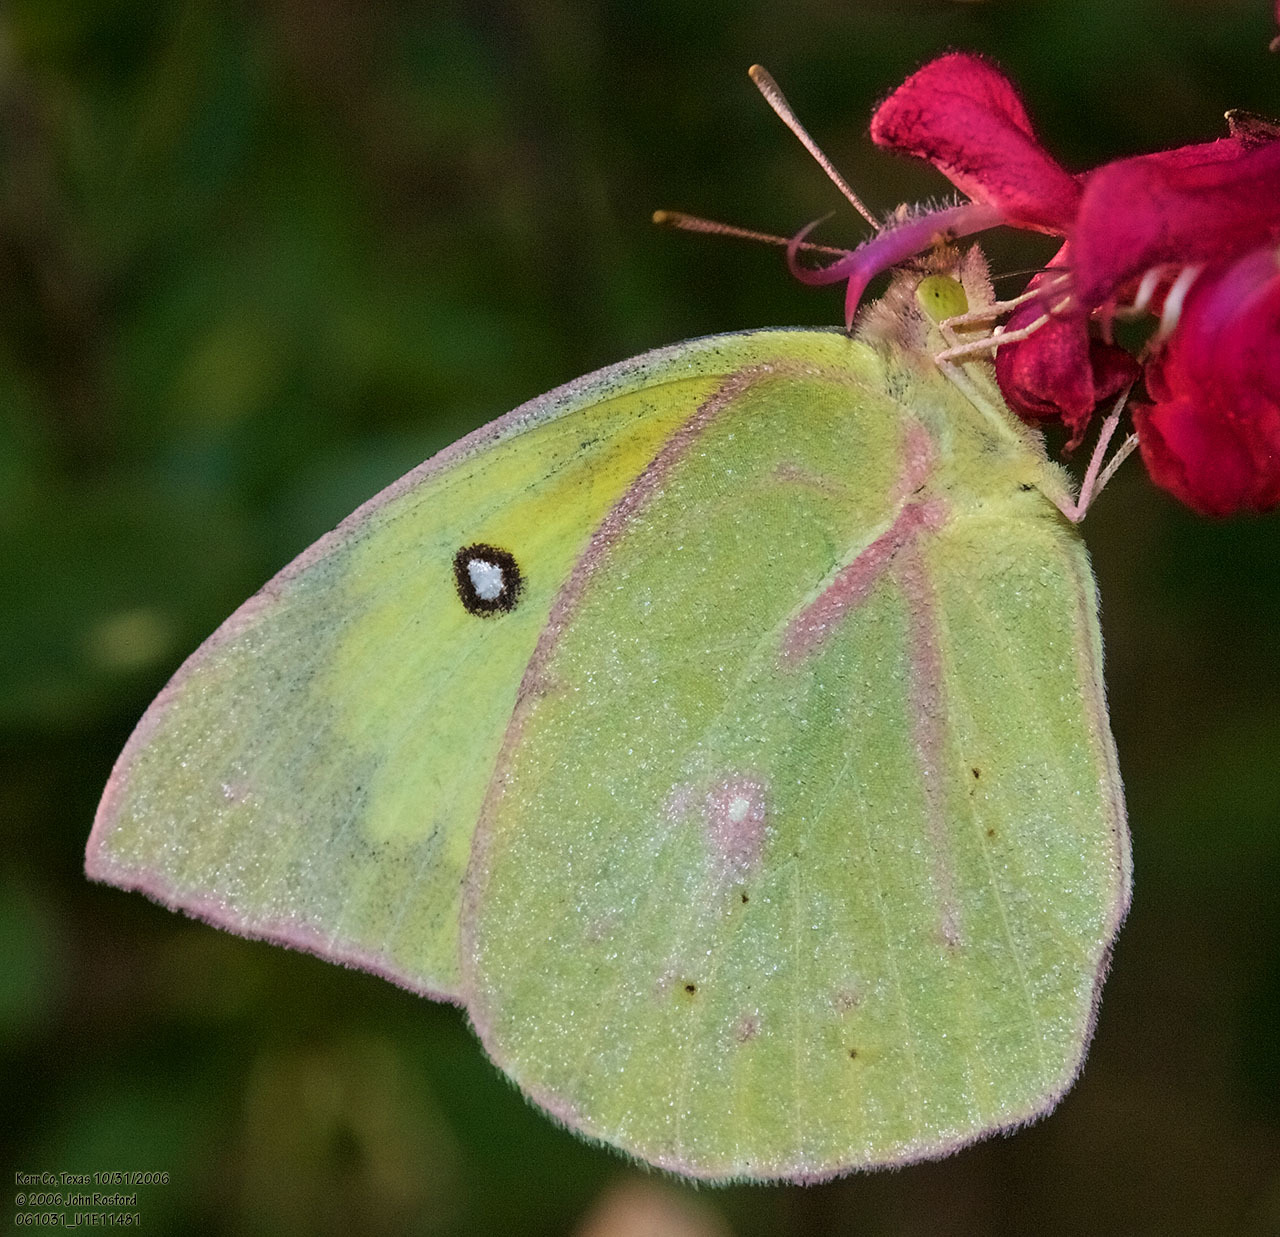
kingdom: Animalia
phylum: Arthropoda
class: Insecta
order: Lepidoptera
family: Pieridae
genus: Zerene
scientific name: Zerene cesonia
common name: Southern dogface
